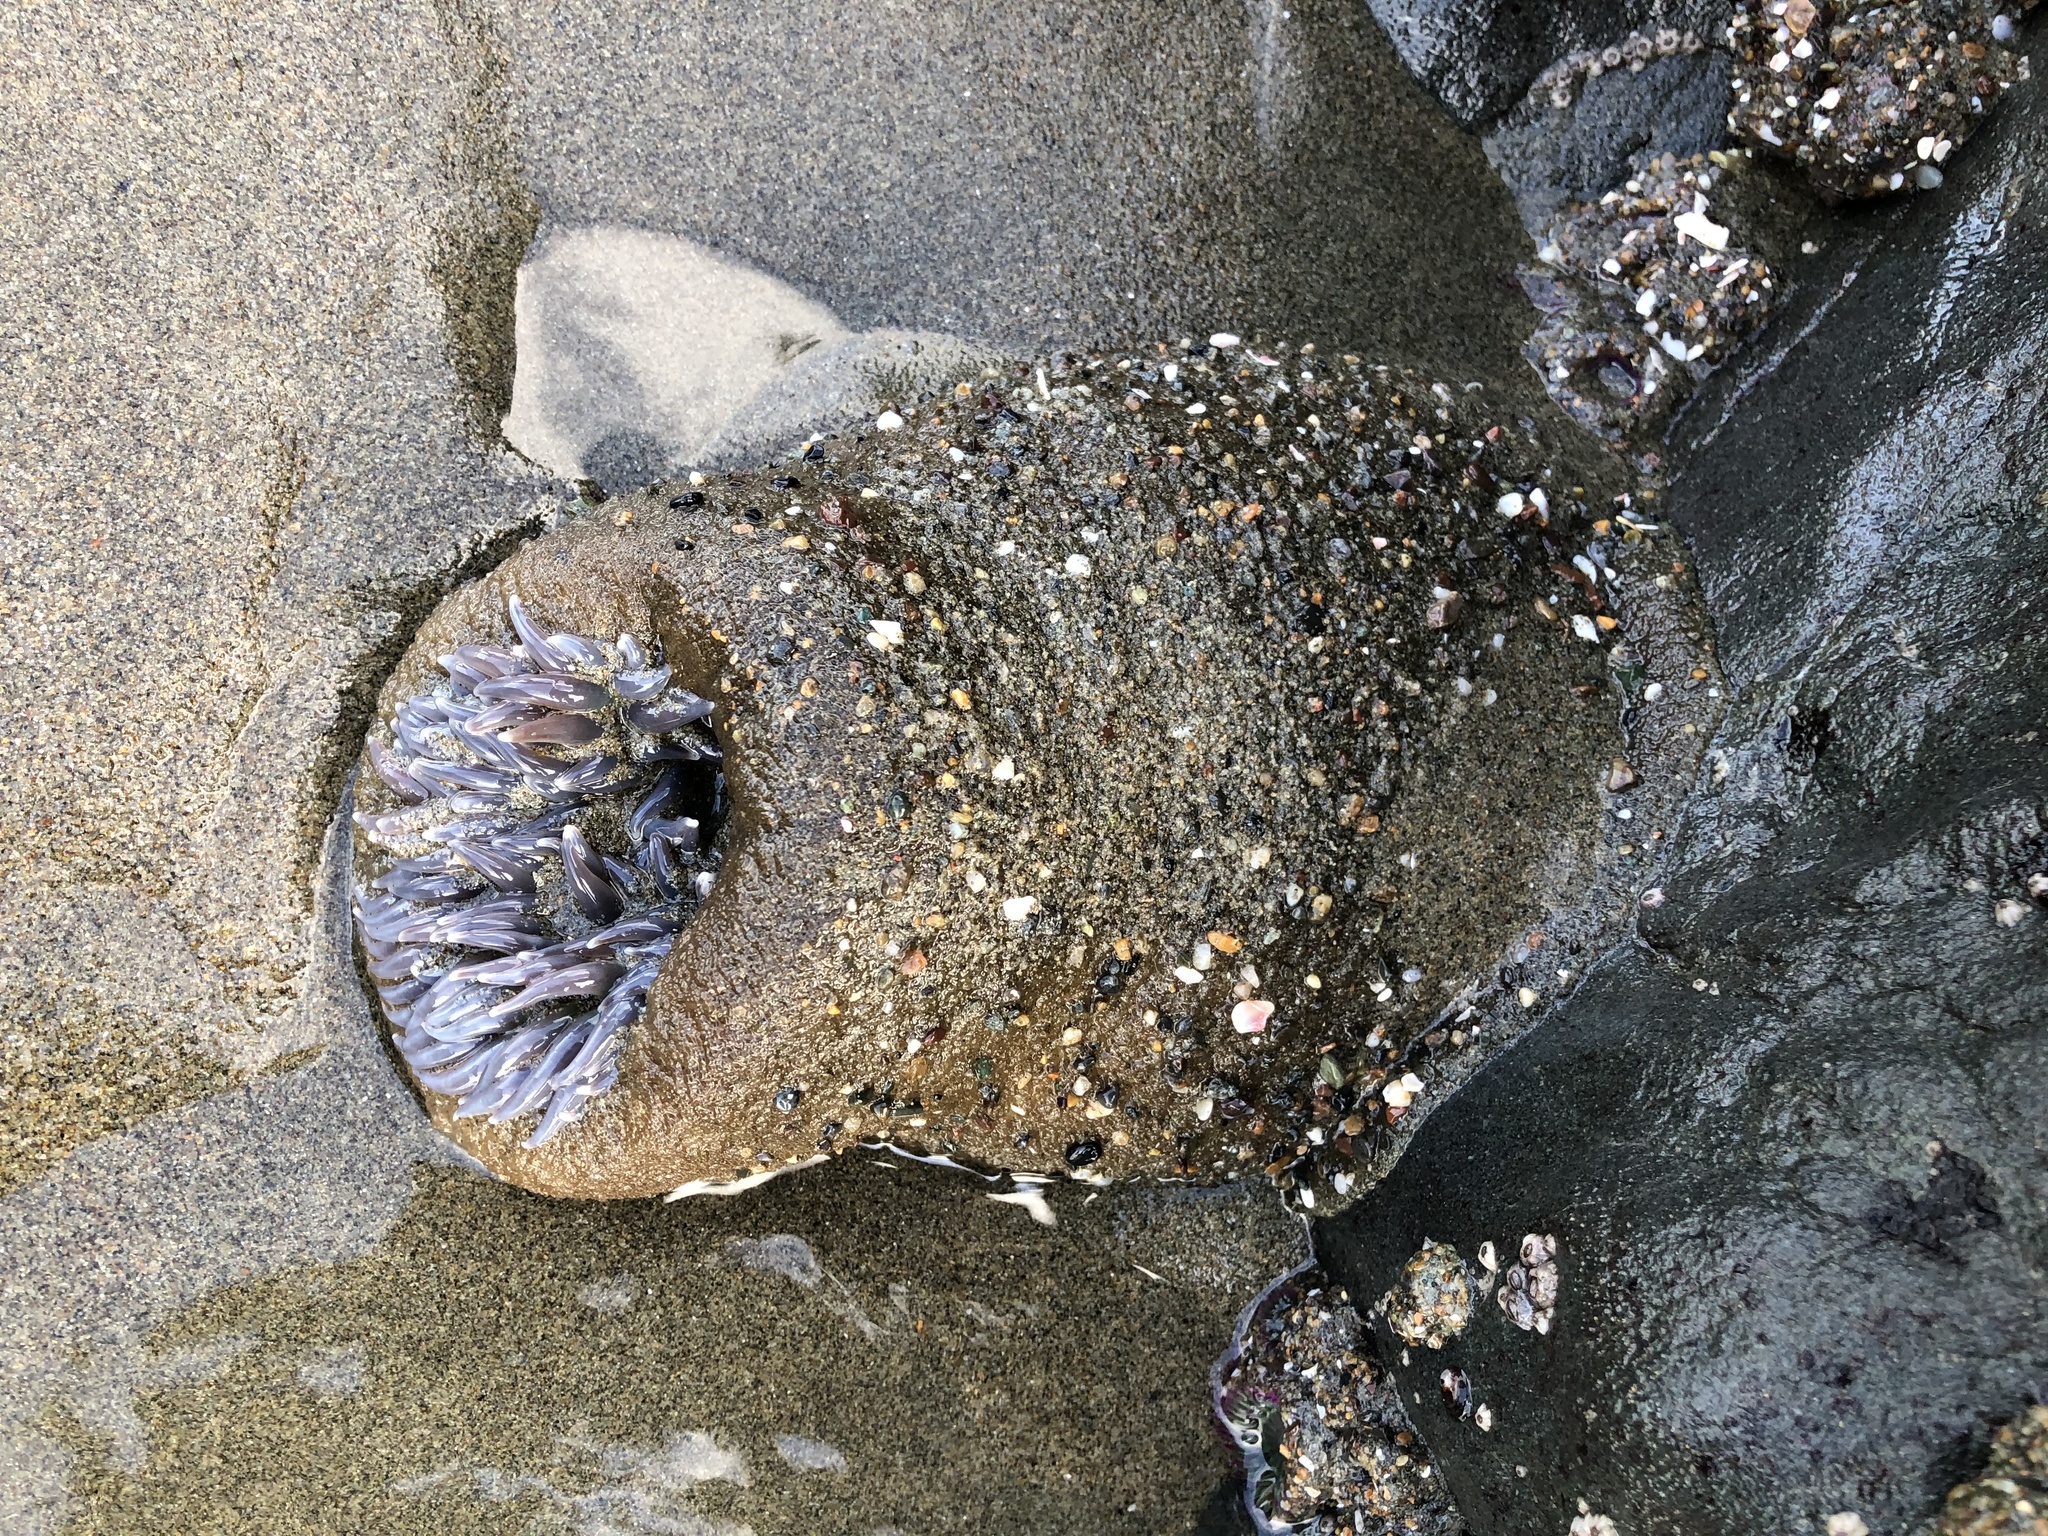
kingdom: Animalia
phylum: Cnidaria
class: Anthozoa
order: Actiniaria
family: Actiniidae
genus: Anthopleura
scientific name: Anthopleura xanthogrammica
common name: Giant green anemone
